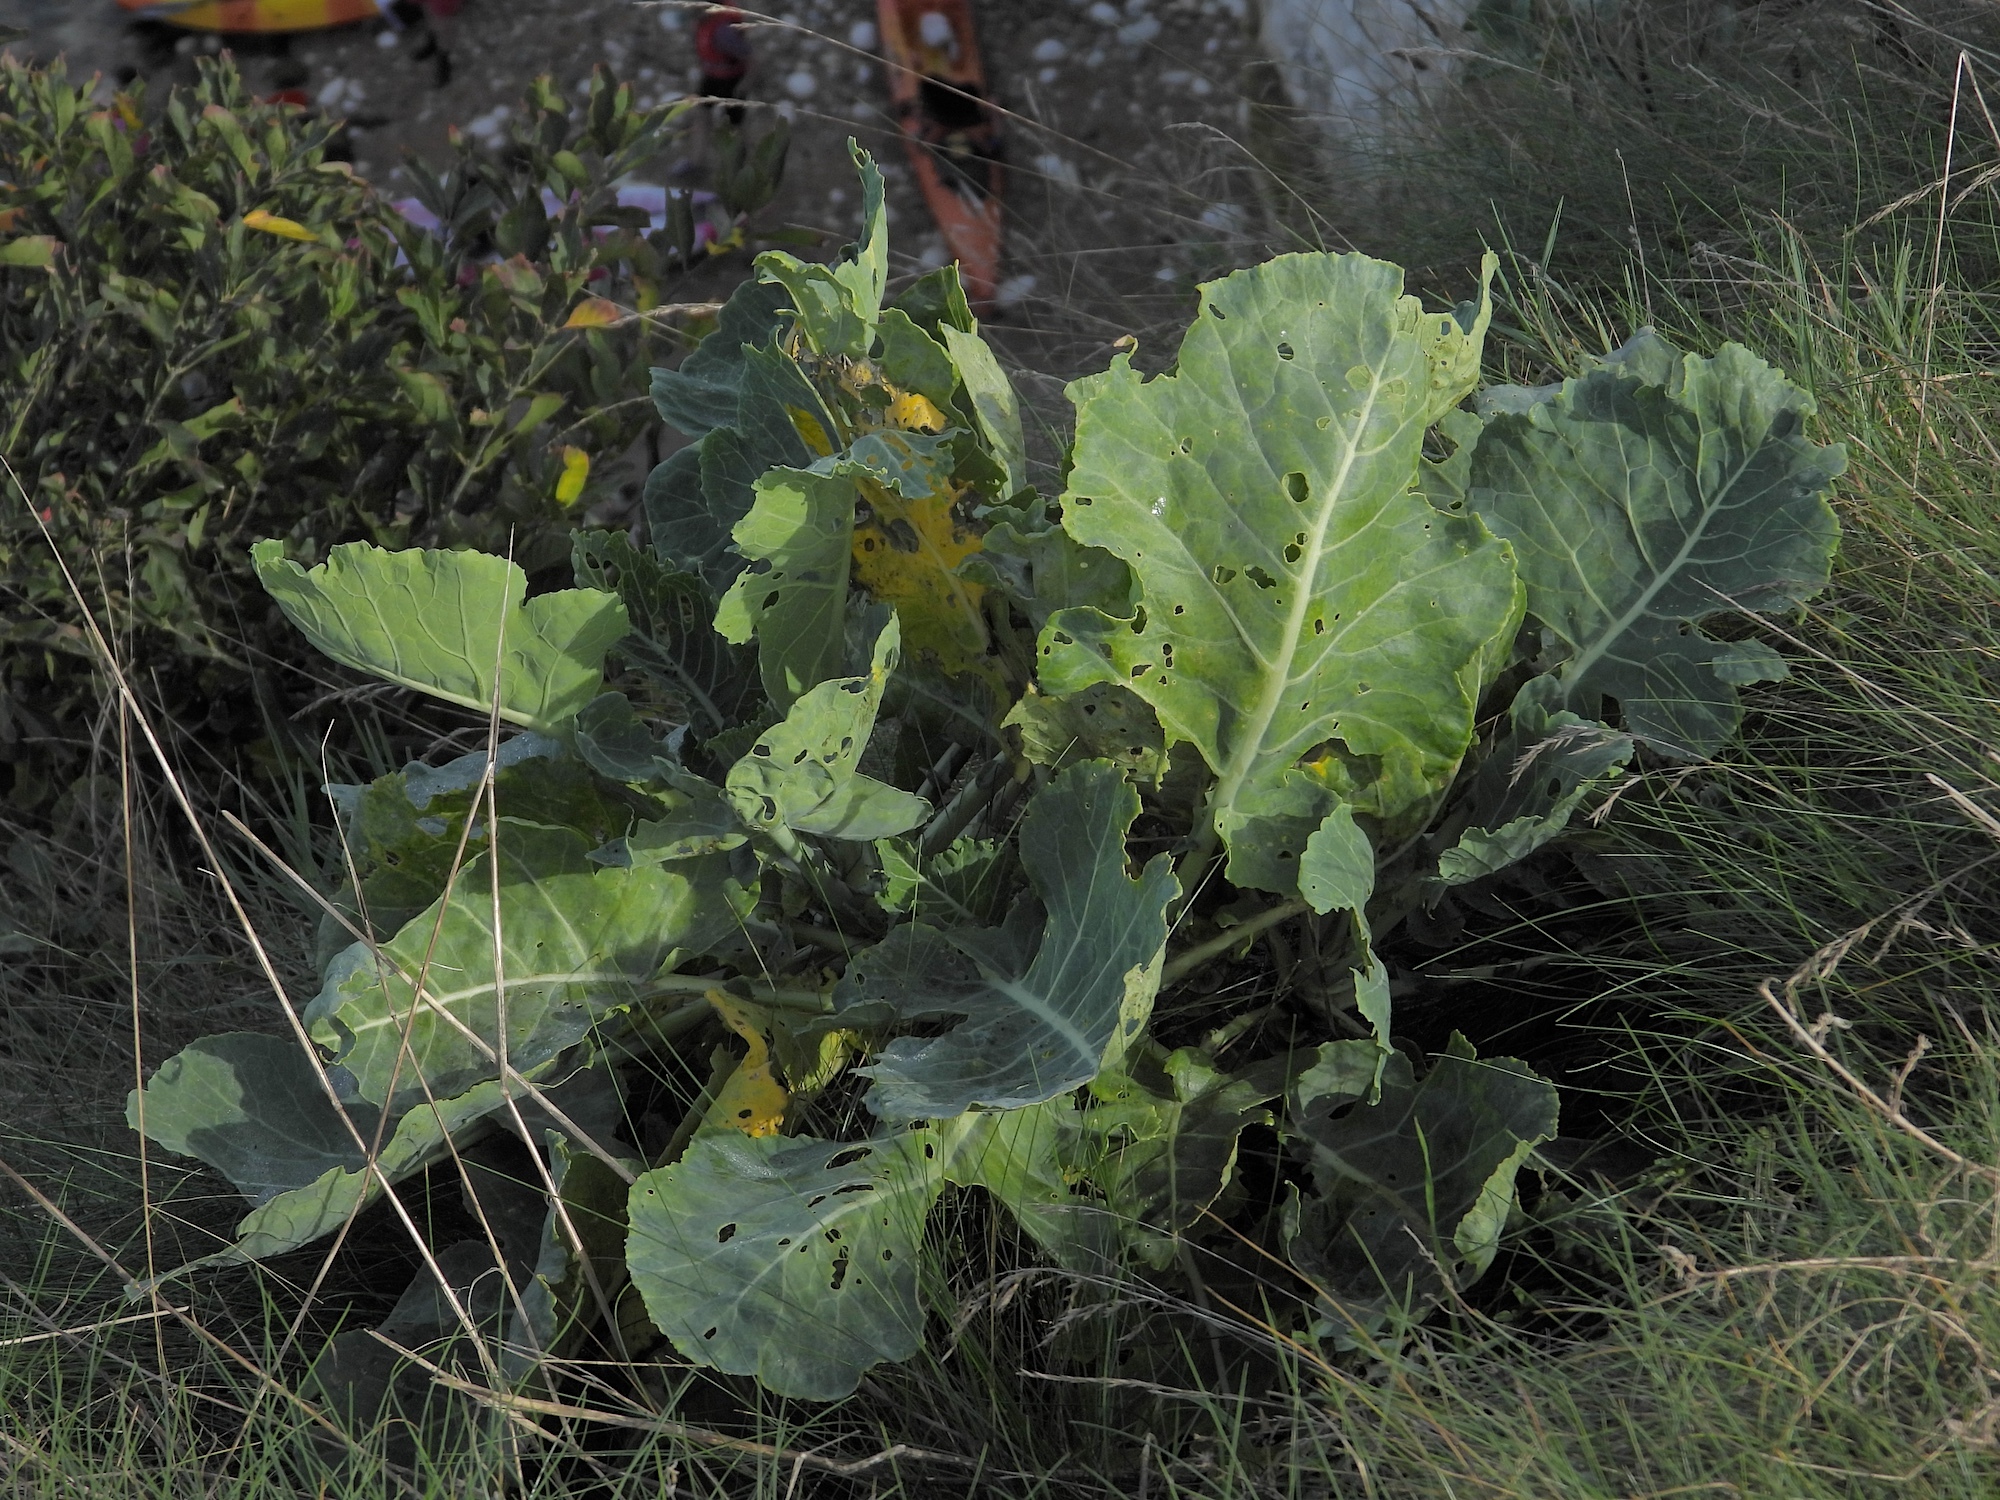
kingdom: Plantae
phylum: Tracheophyta
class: Magnoliopsida
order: Brassicales
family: Brassicaceae
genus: Brassica
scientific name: Brassica oleracea
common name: Cabbage
